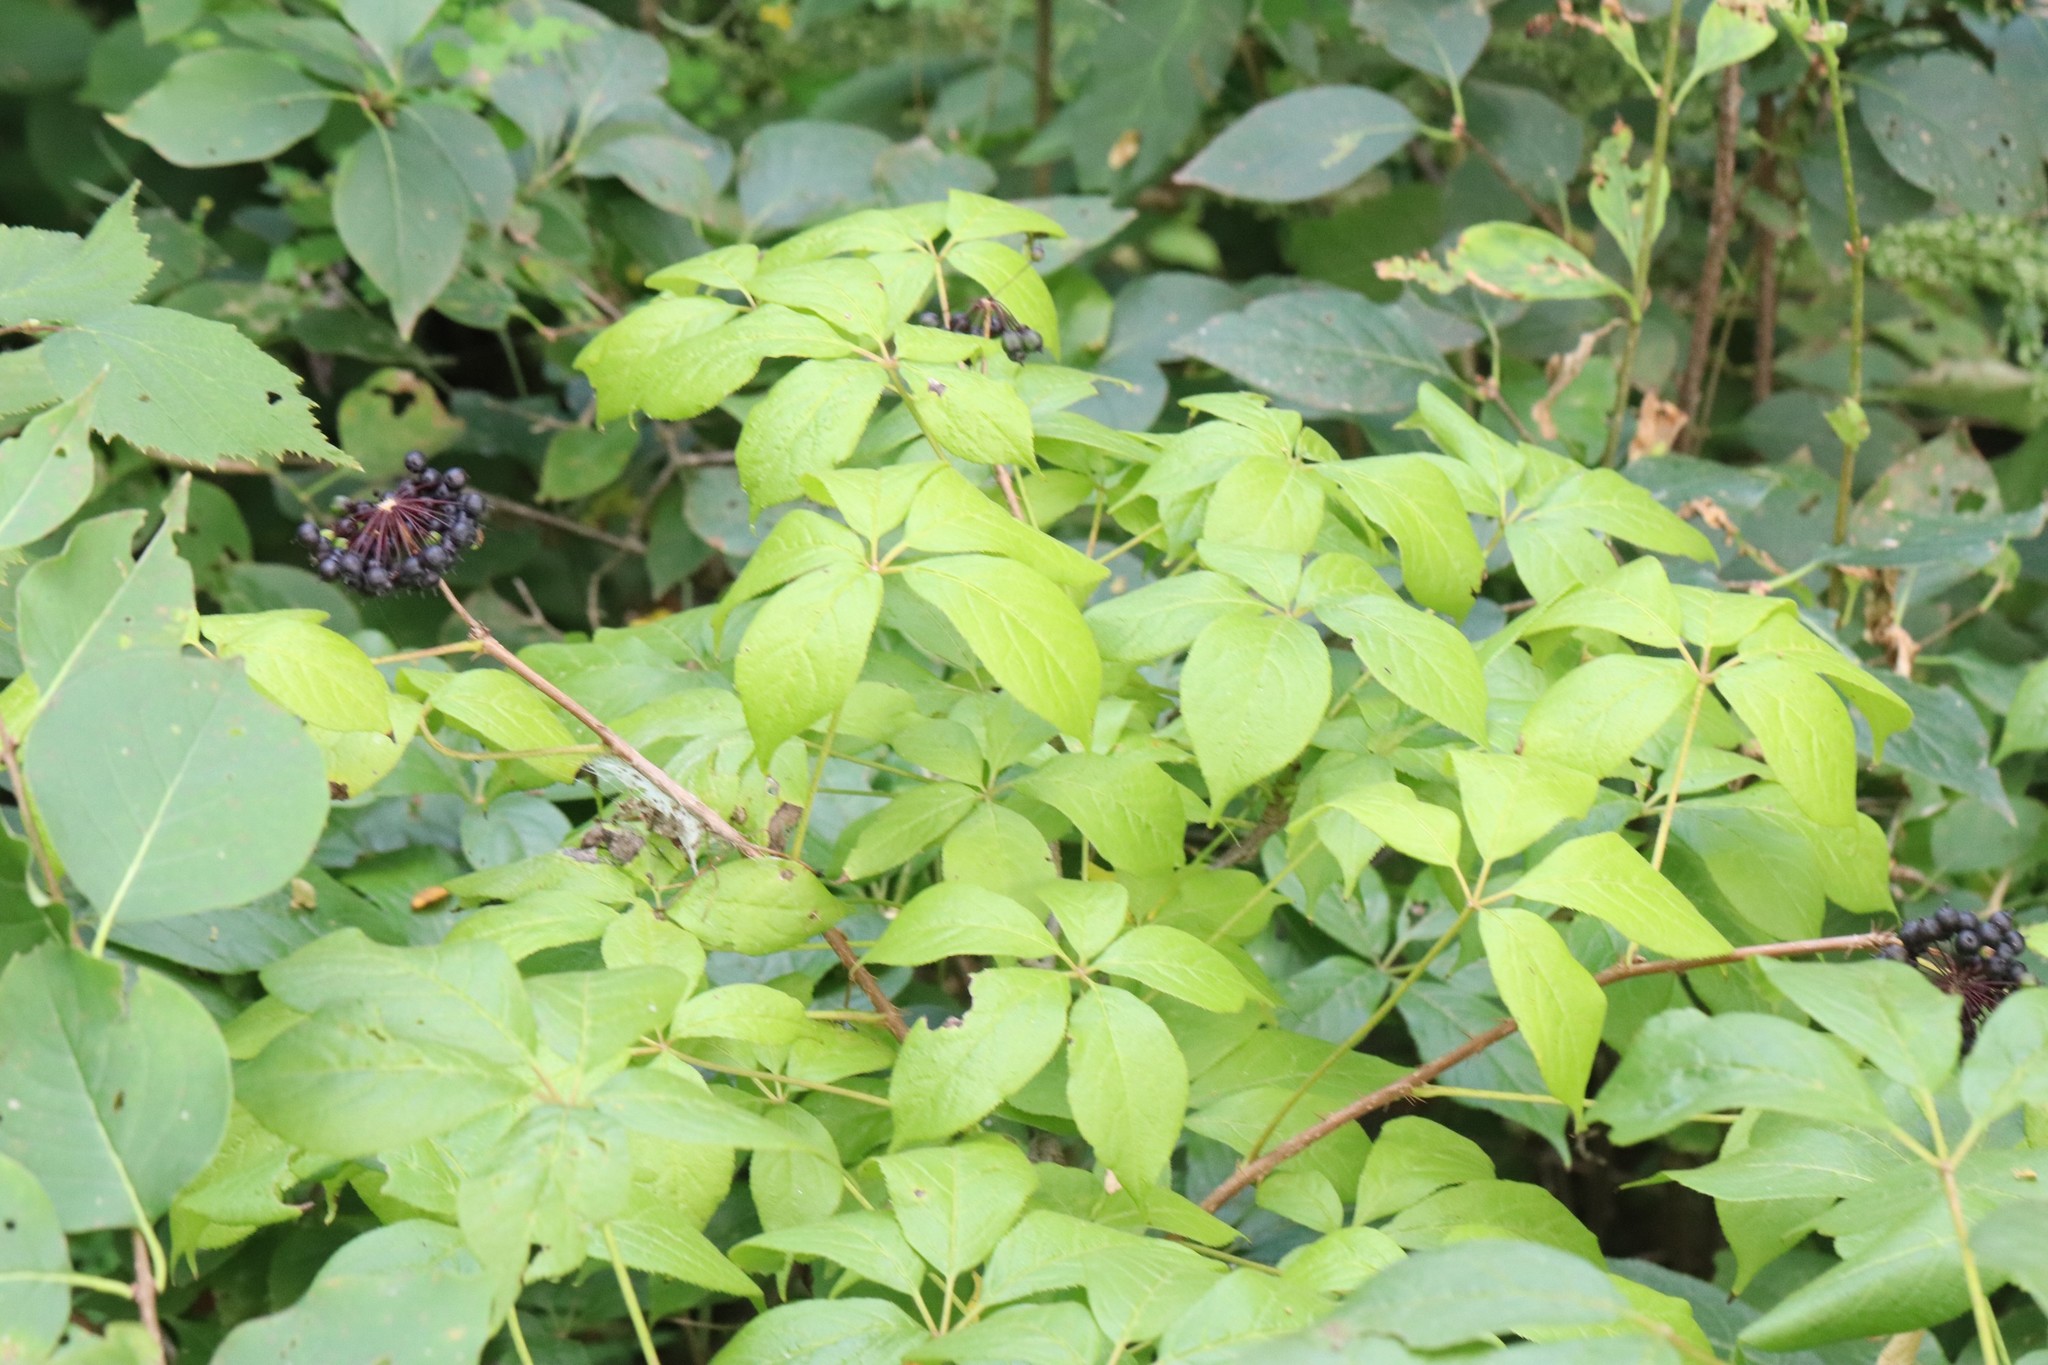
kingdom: Plantae
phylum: Tracheophyta
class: Magnoliopsida
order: Apiales
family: Araliaceae
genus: Eleutherococcus
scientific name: Eleutherococcus senticosus
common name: Siberian-ginseng
